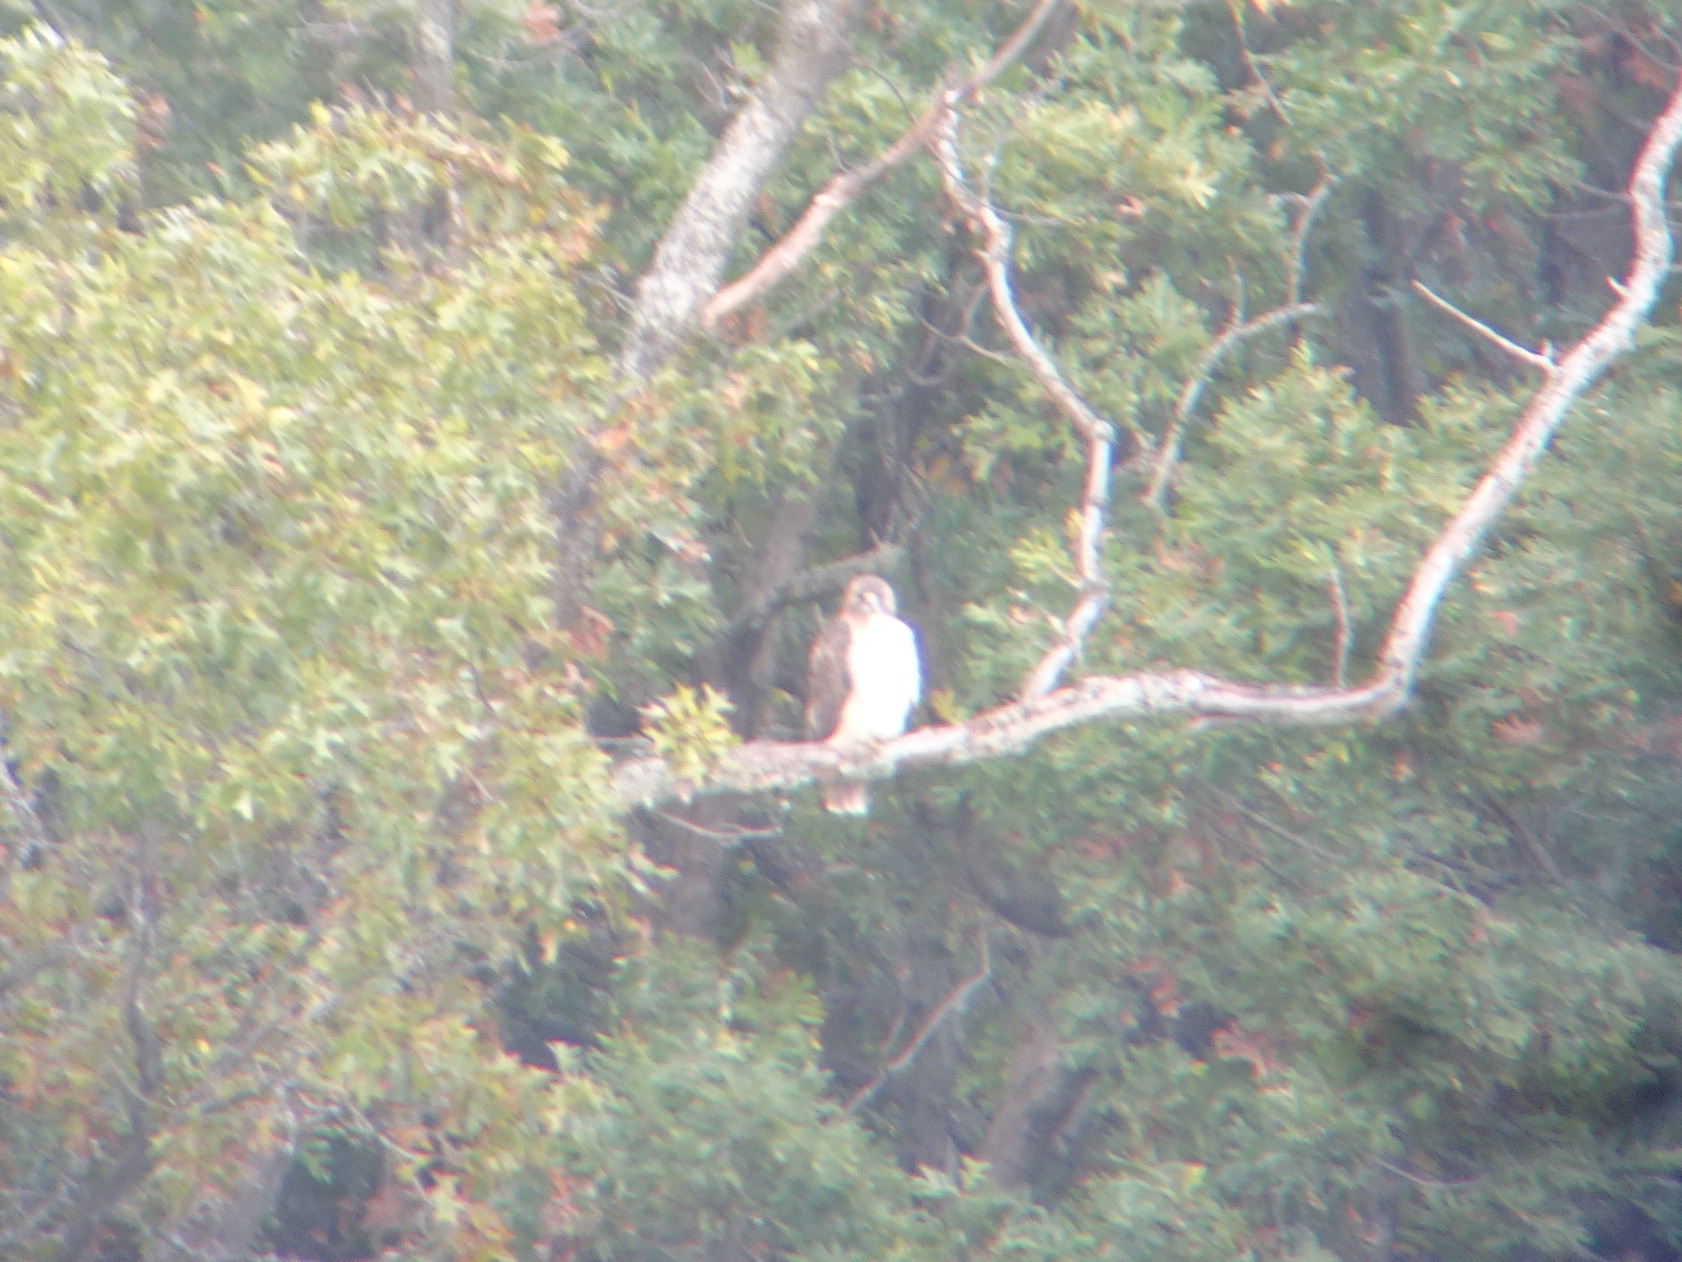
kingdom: Animalia
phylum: Chordata
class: Aves
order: Accipitriformes
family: Accipitridae
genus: Buteo
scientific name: Buteo jamaicensis
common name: Red-tailed hawk
